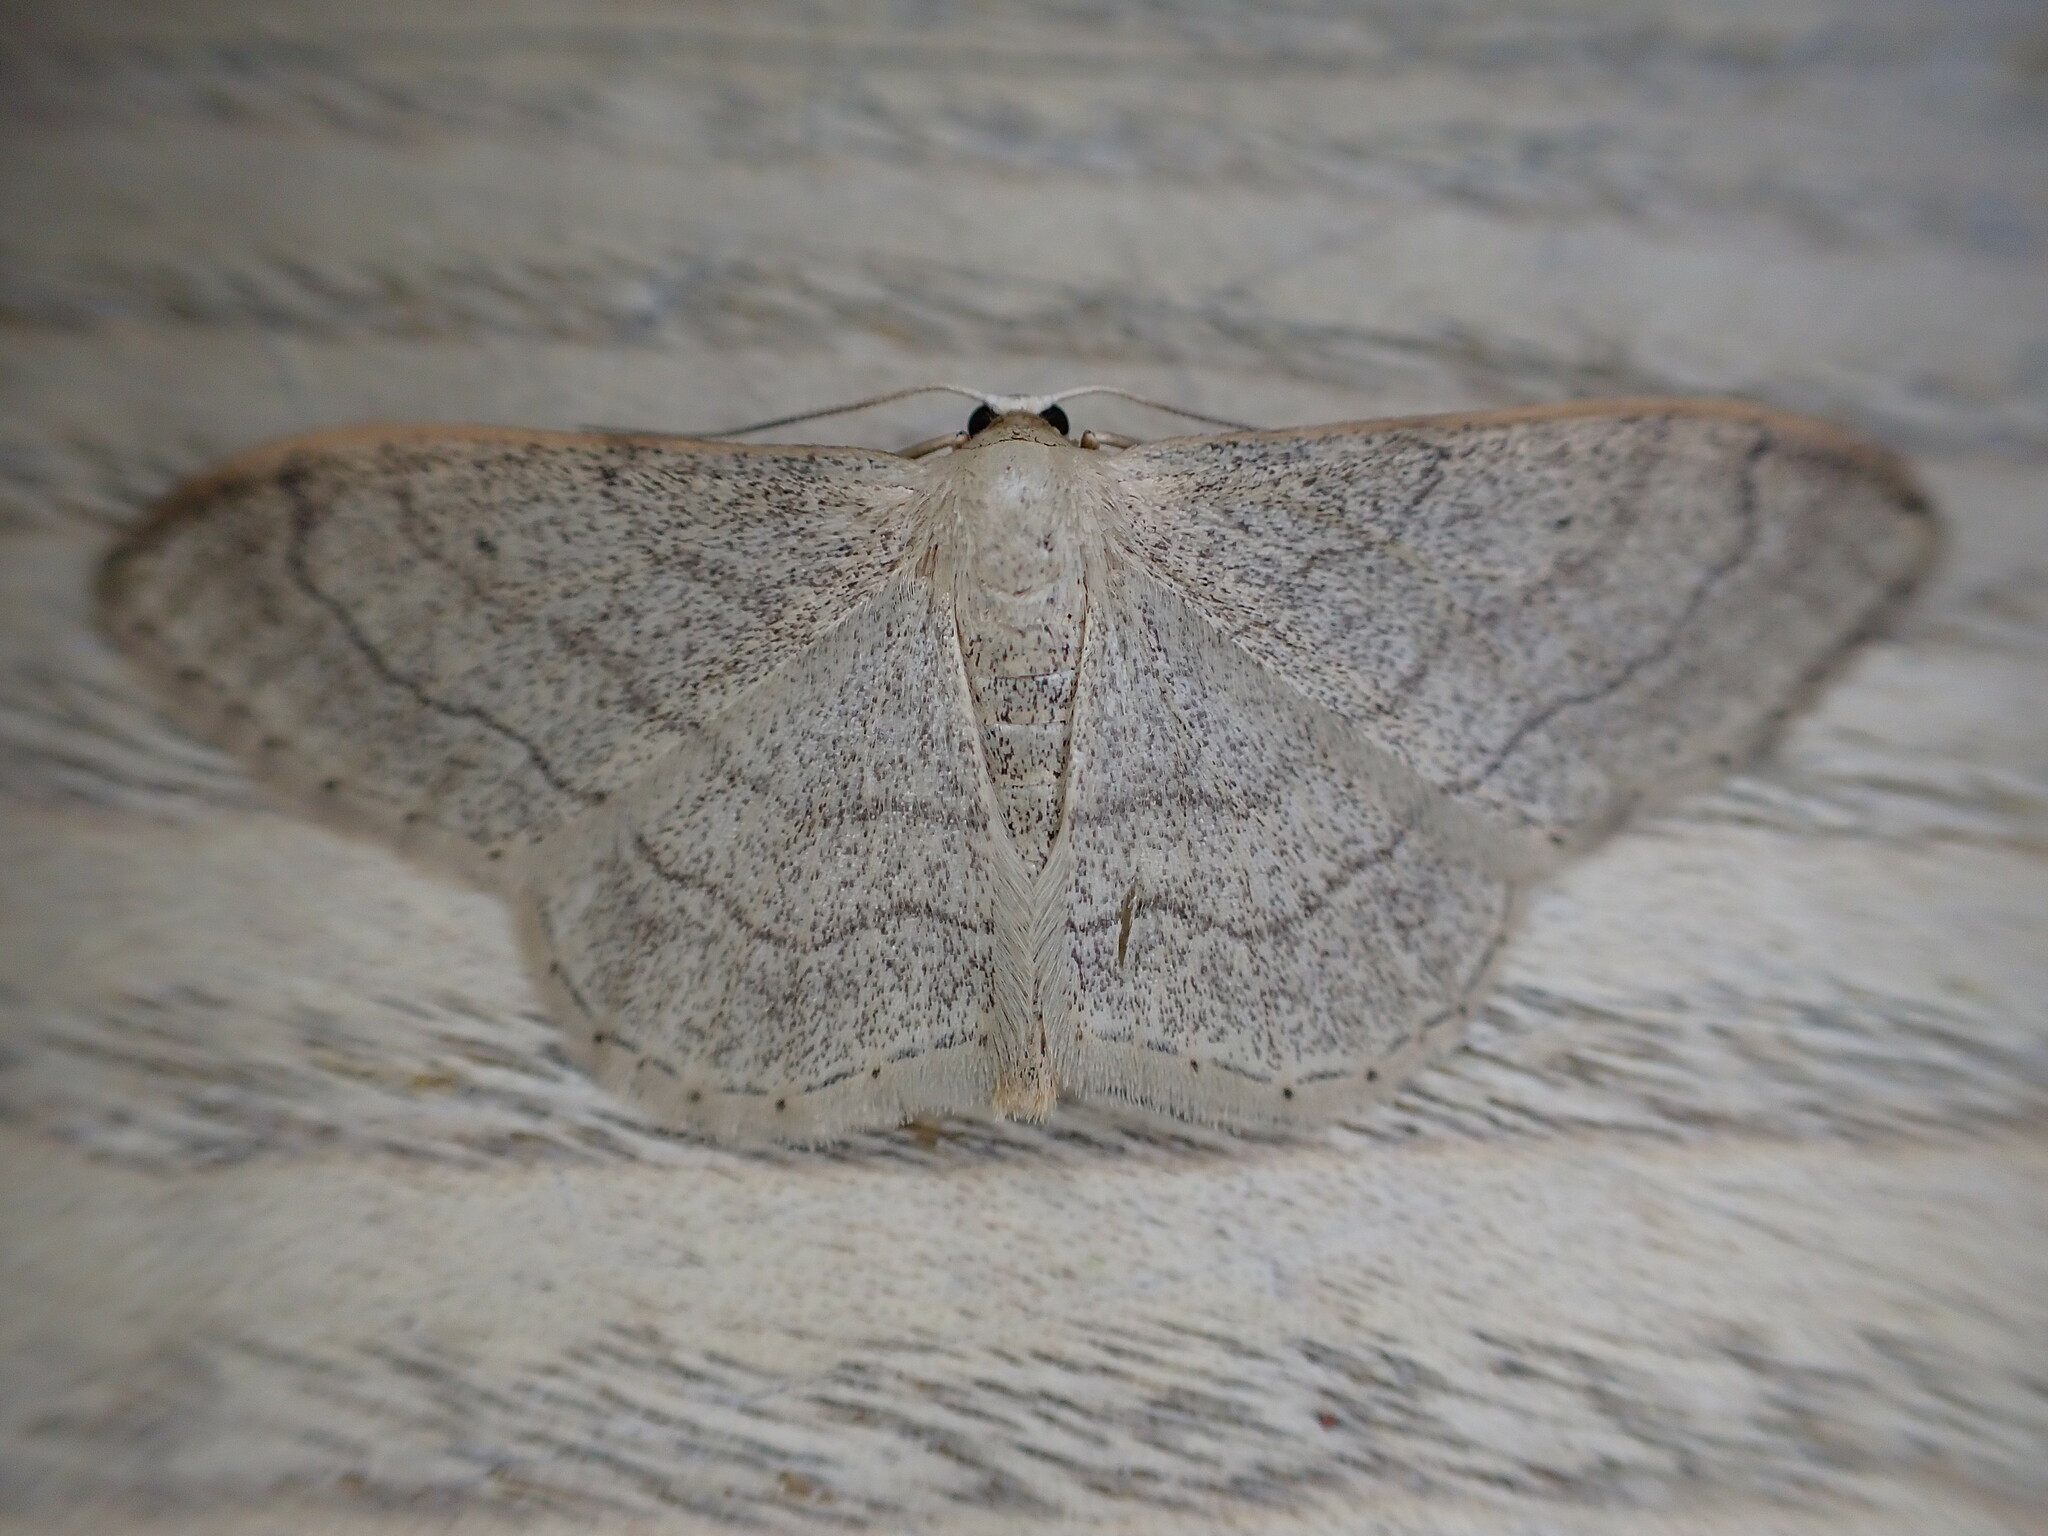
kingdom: Animalia
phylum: Arthropoda
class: Insecta
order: Lepidoptera
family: Geometridae
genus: Idaea
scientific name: Idaea aversata
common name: Riband wave
